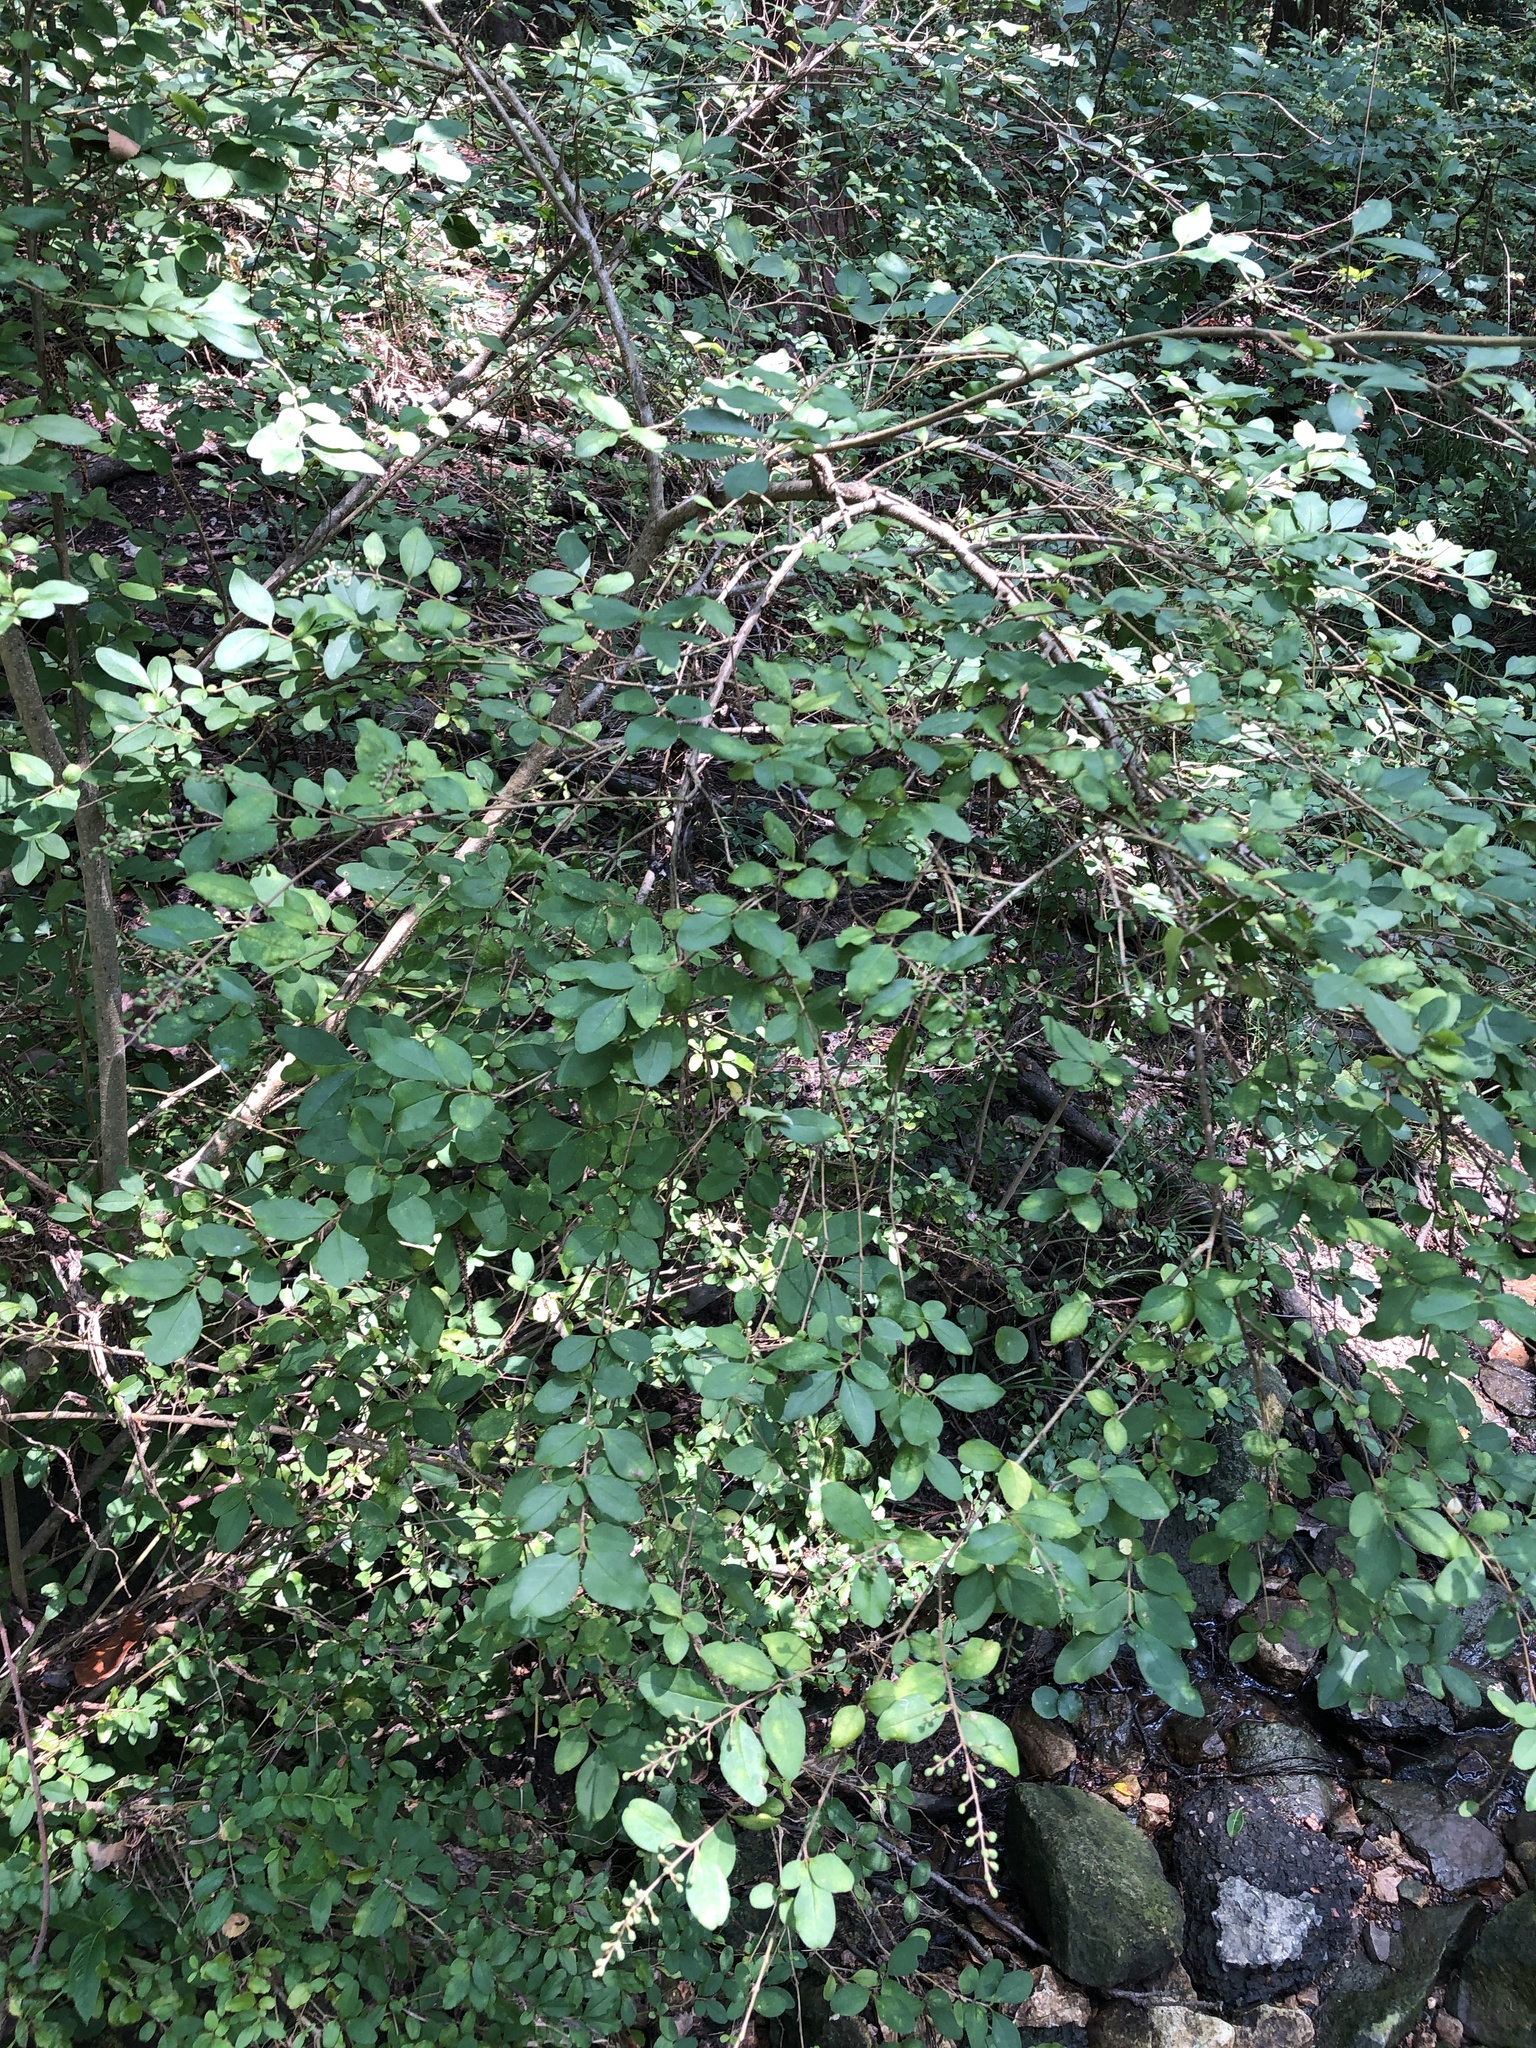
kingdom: Plantae
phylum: Tracheophyta
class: Magnoliopsida
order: Lamiales
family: Oleaceae
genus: Ligustrum
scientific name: Ligustrum sinense
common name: Chinese privet
